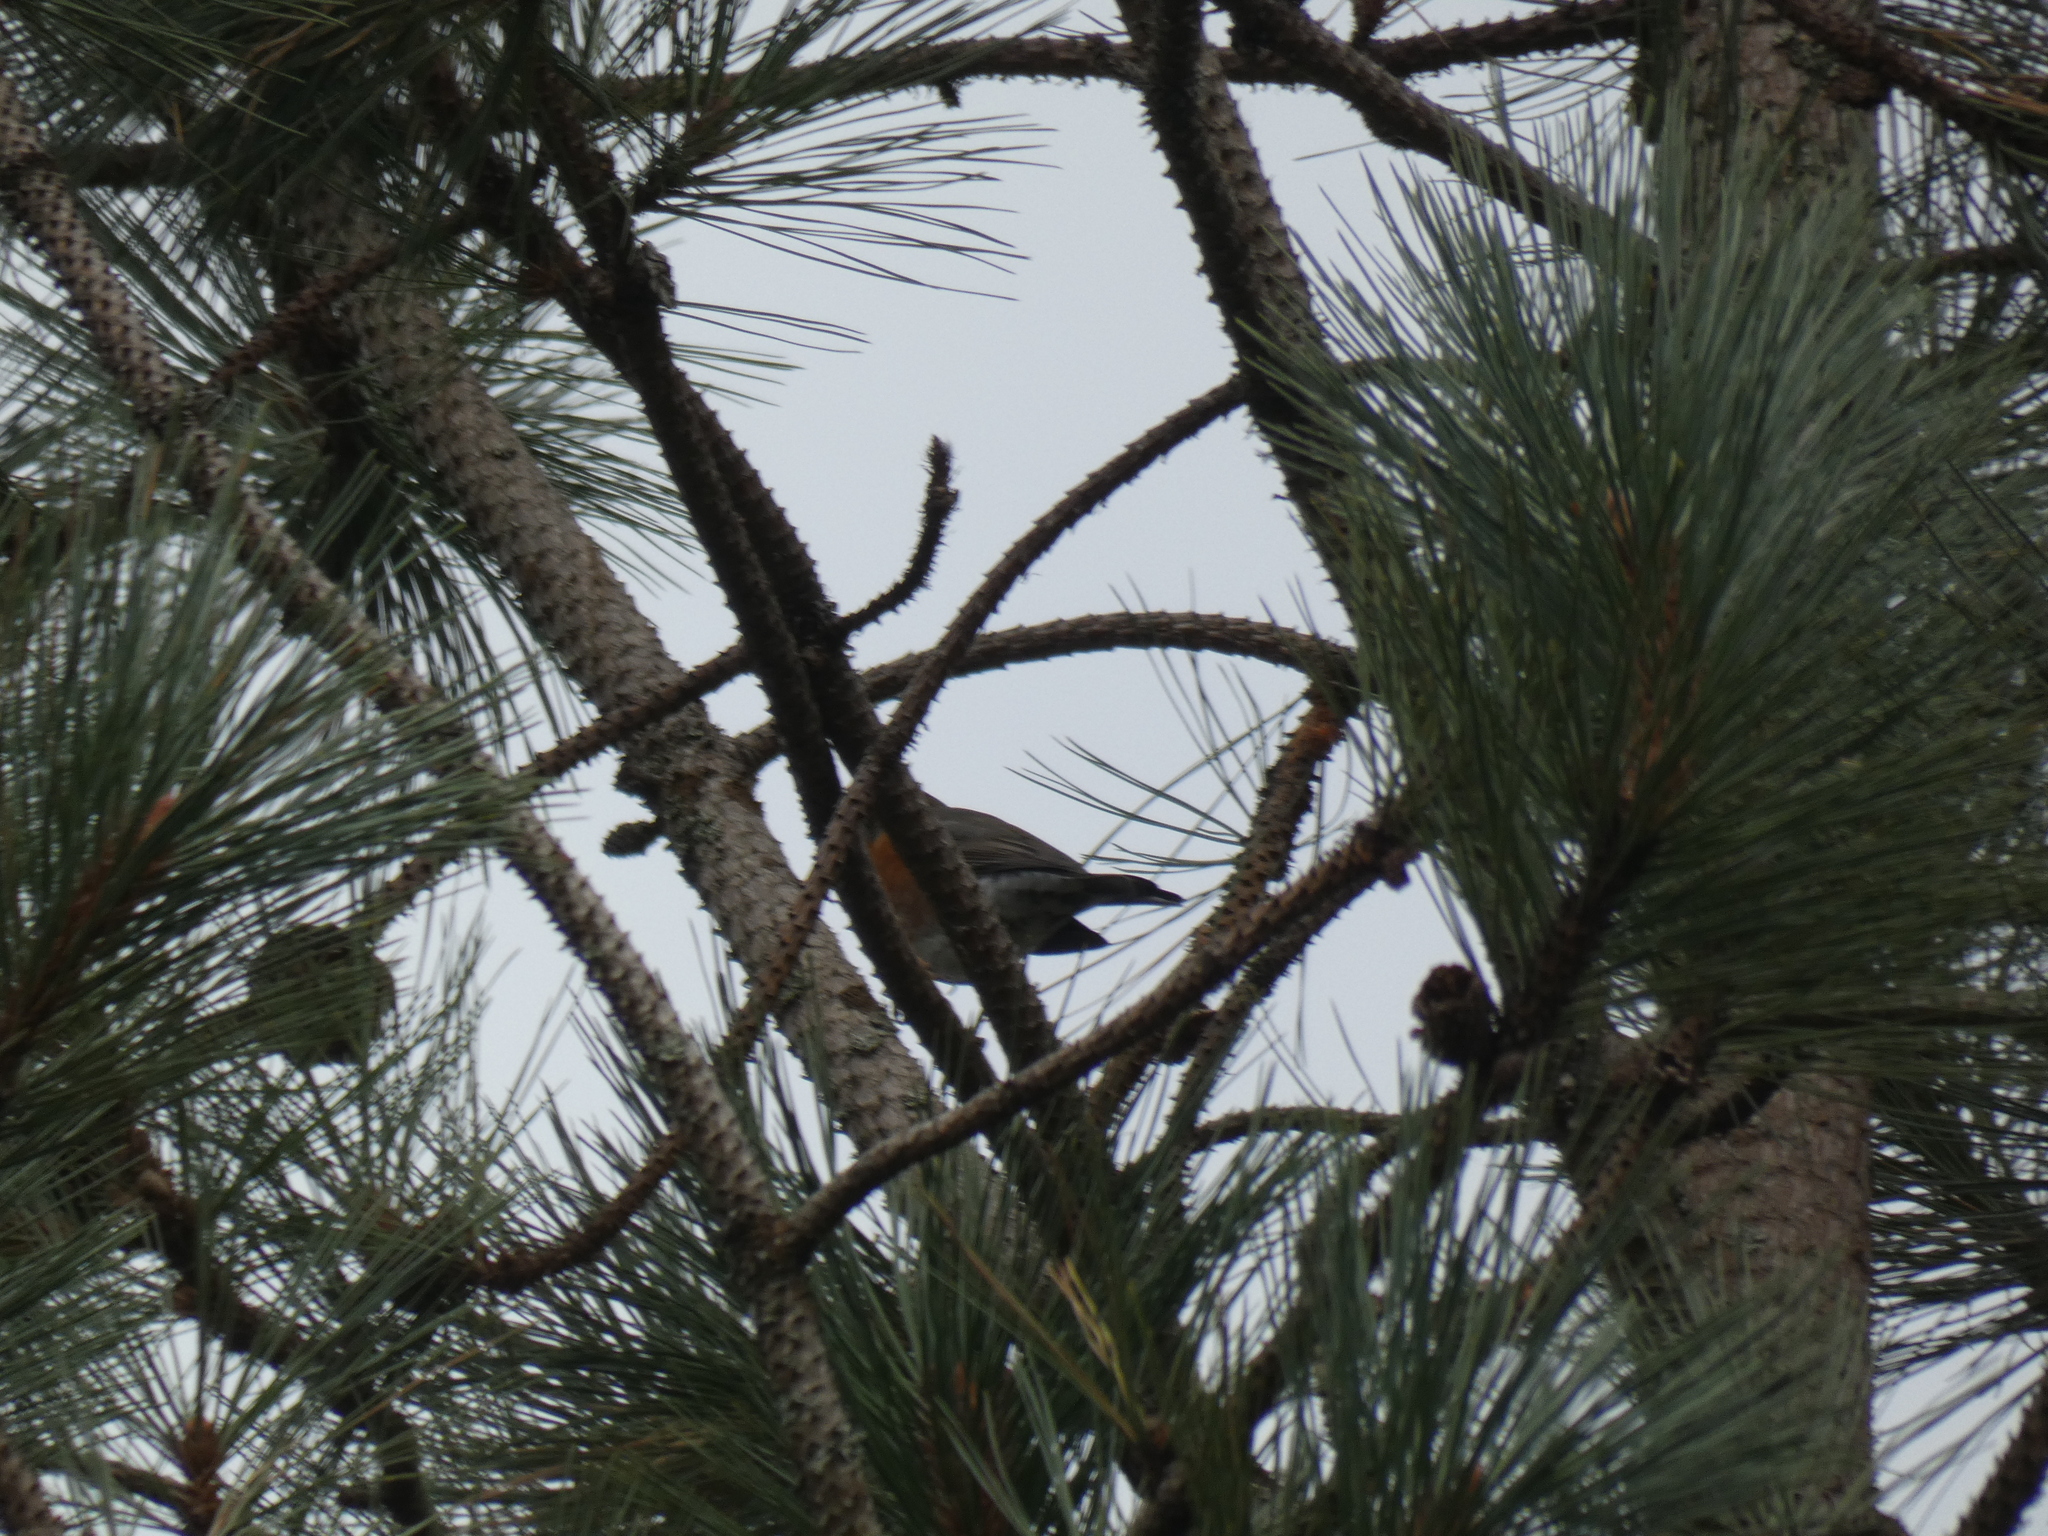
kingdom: Animalia
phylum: Chordata
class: Aves
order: Passeriformes
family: Turdidae
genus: Turdus
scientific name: Turdus migratorius
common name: American robin
